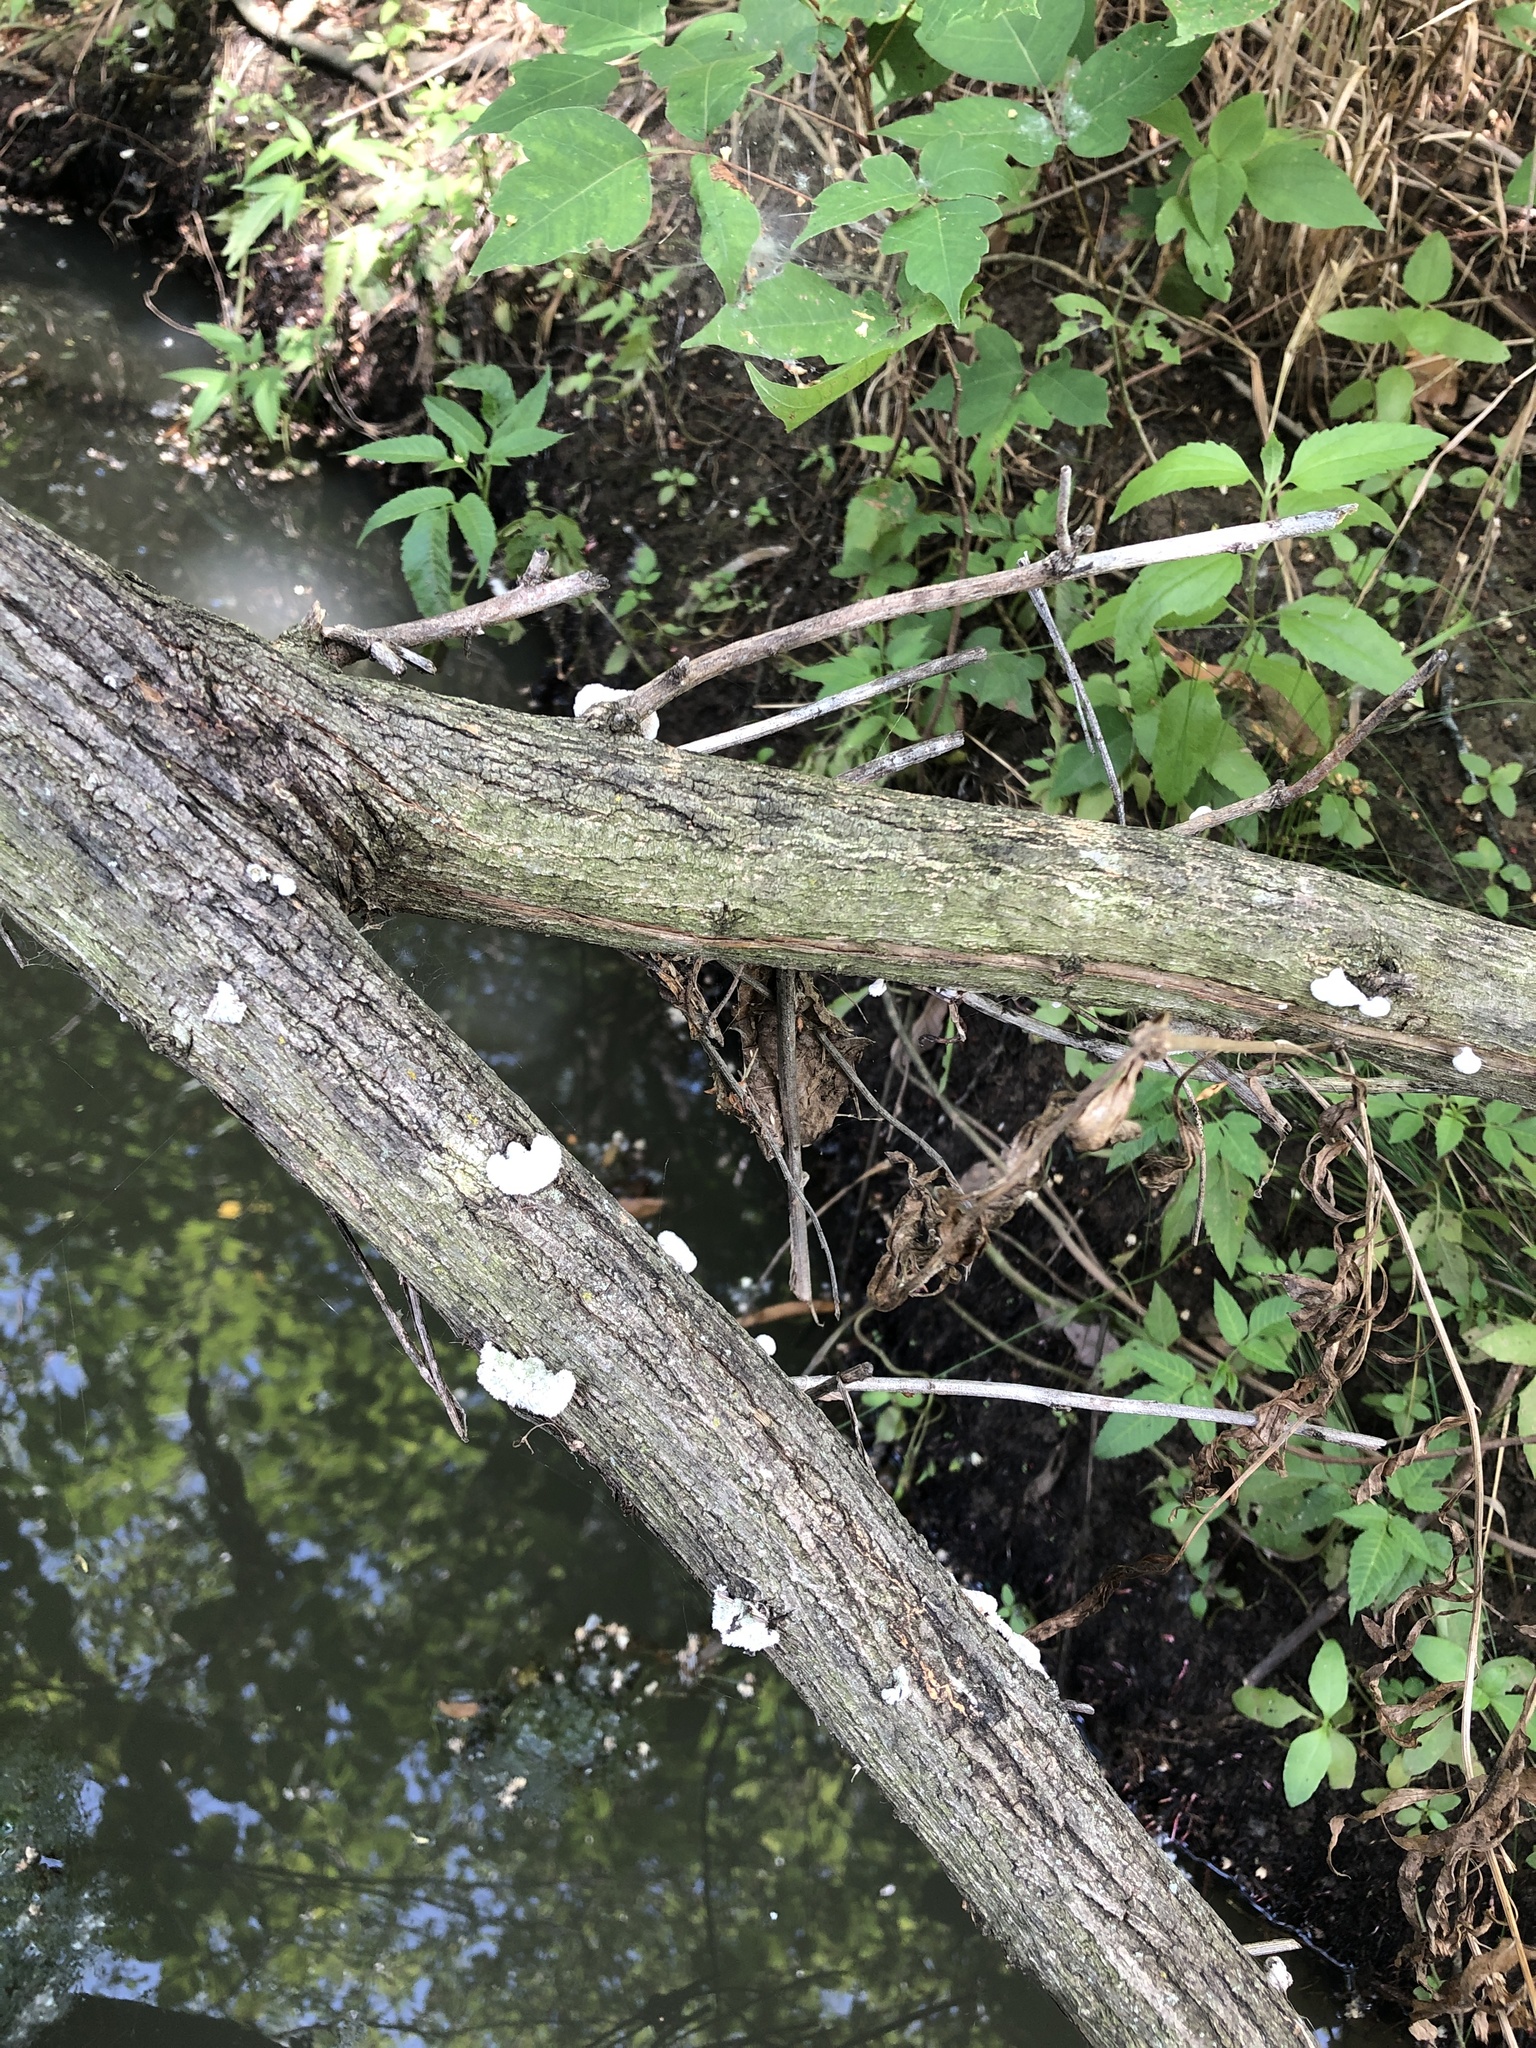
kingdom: Fungi
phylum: Basidiomycota
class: Agaricomycetes
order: Agaricales
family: Schizophyllaceae
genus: Schizophyllum
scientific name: Schizophyllum commune
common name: Common porecrust
